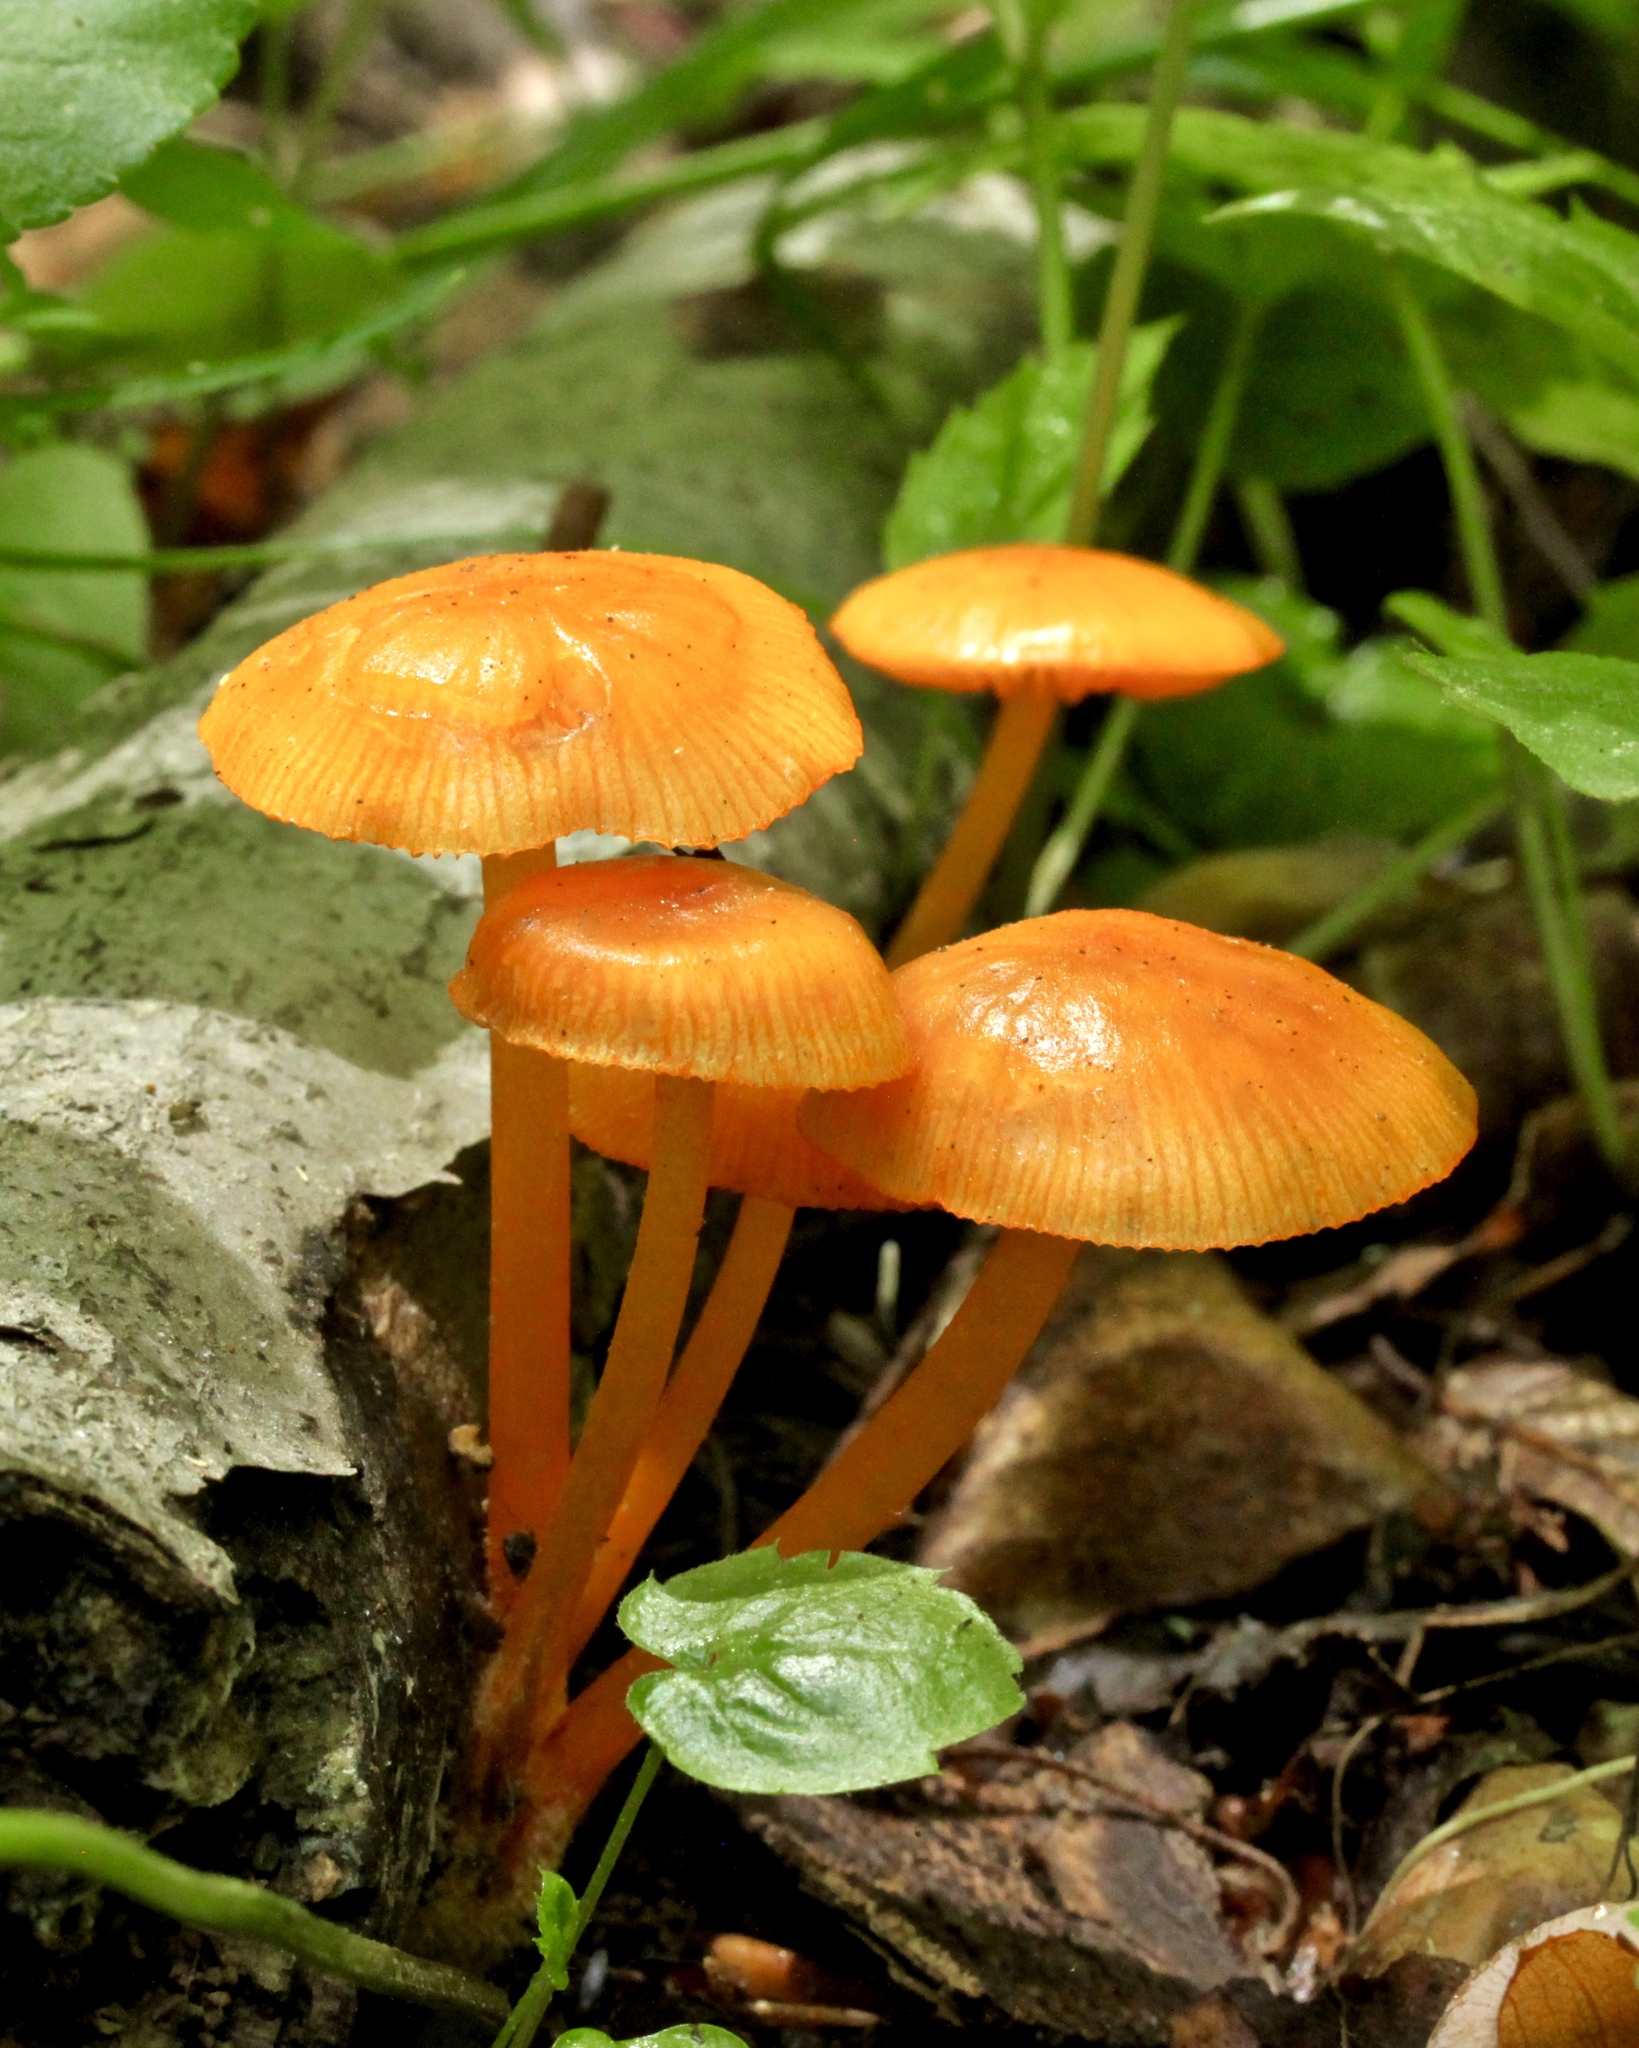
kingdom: Fungi
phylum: Basidiomycota
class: Agaricomycetes
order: Agaricales
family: Mycenaceae
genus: Mycena
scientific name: Mycena leaiana
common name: Orange mycena
